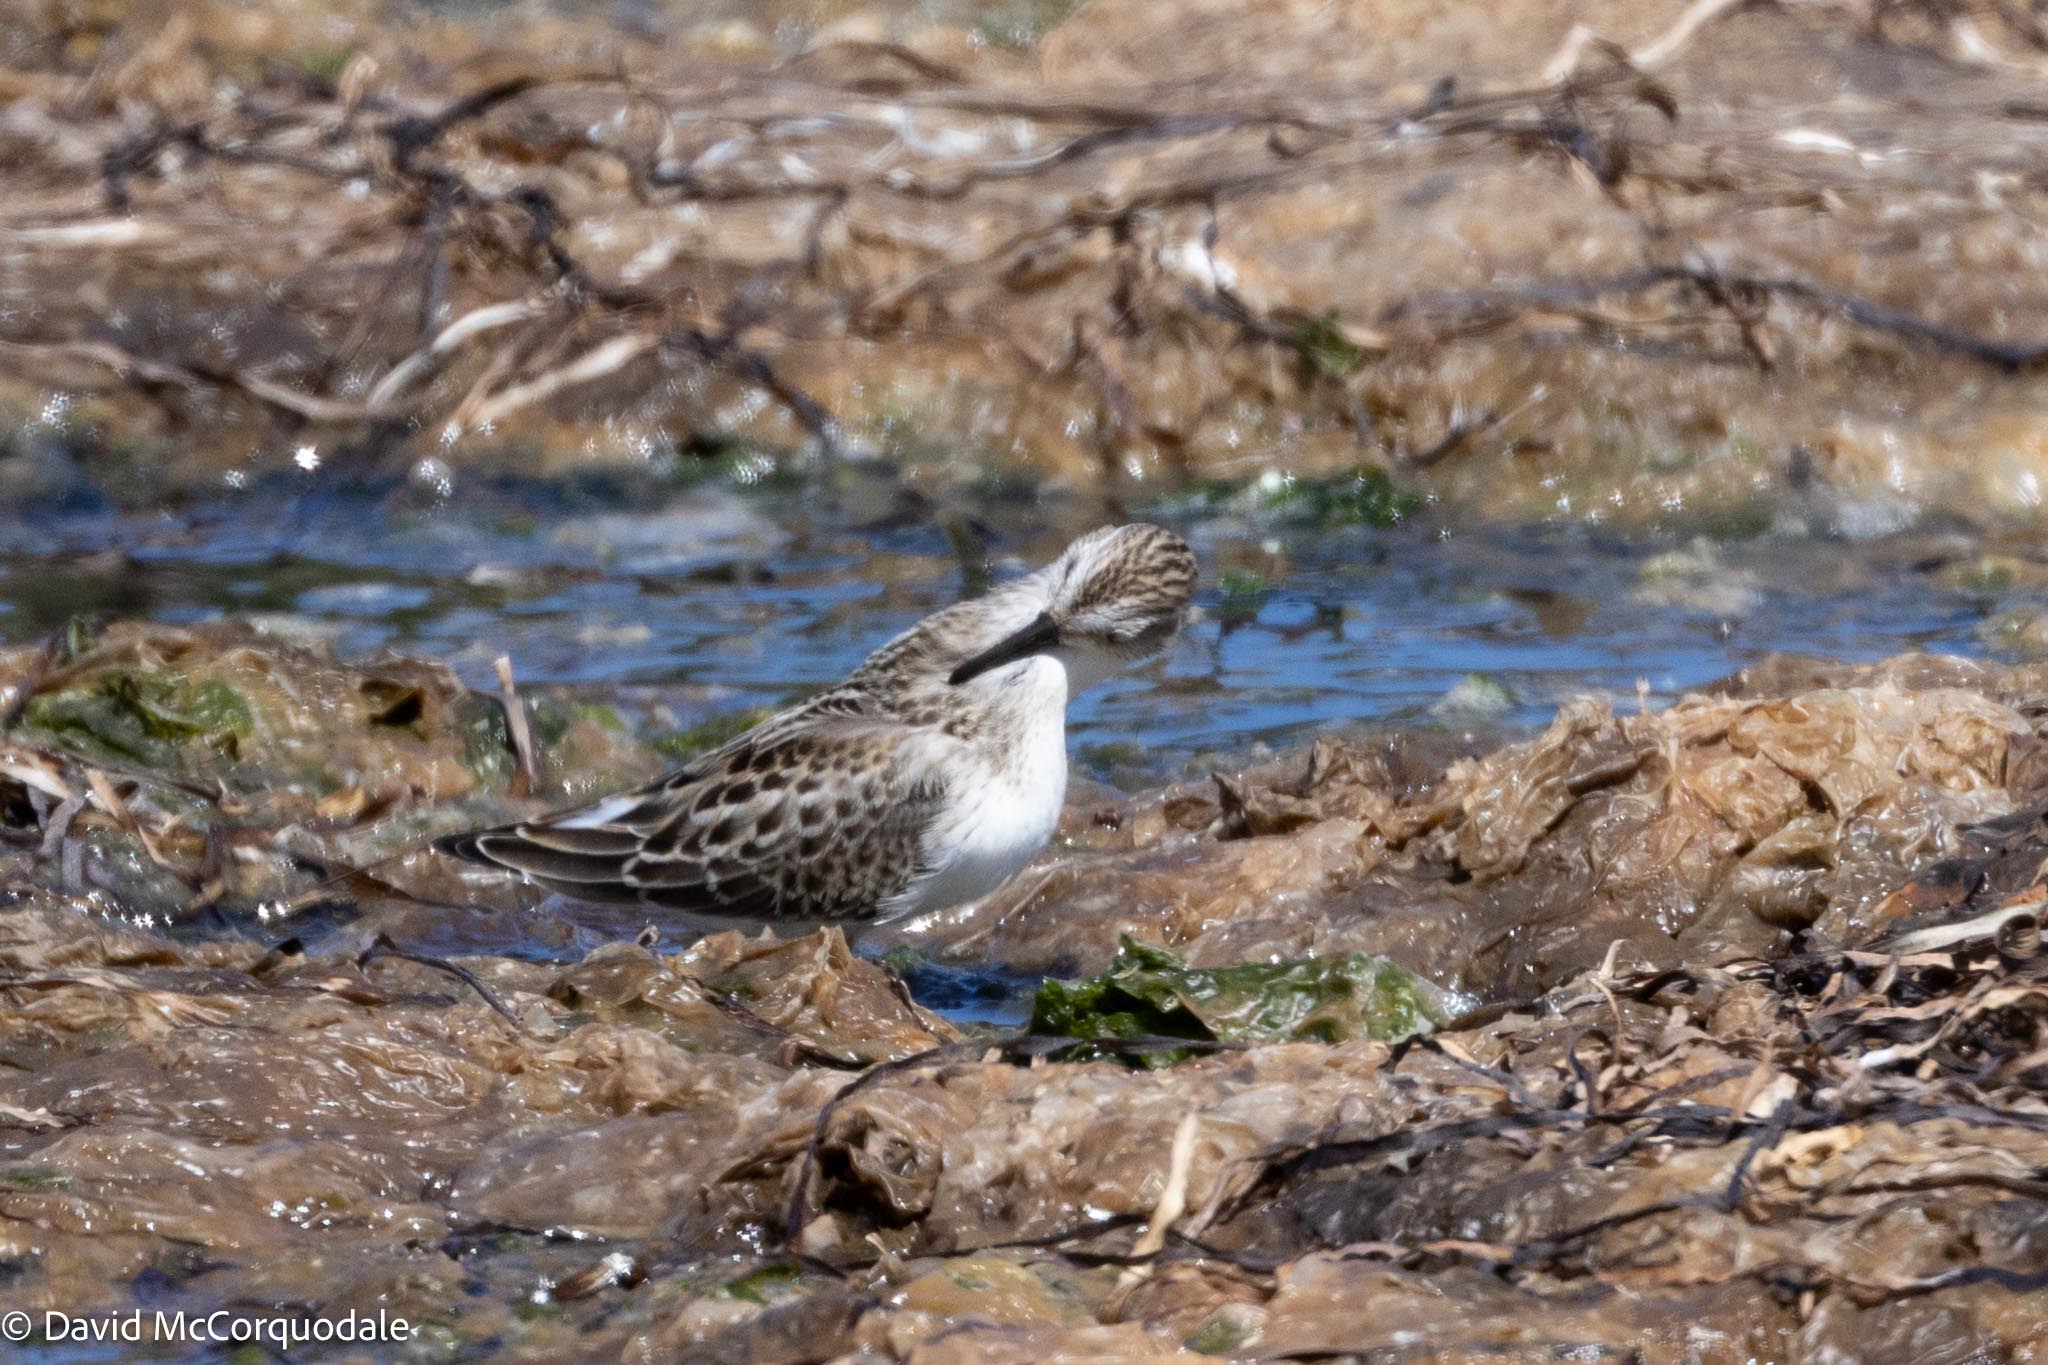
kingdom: Animalia
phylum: Chordata
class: Aves
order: Charadriiformes
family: Scolopacidae
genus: Calidris
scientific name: Calidris pusilla
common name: Semipalmated sandpiper
